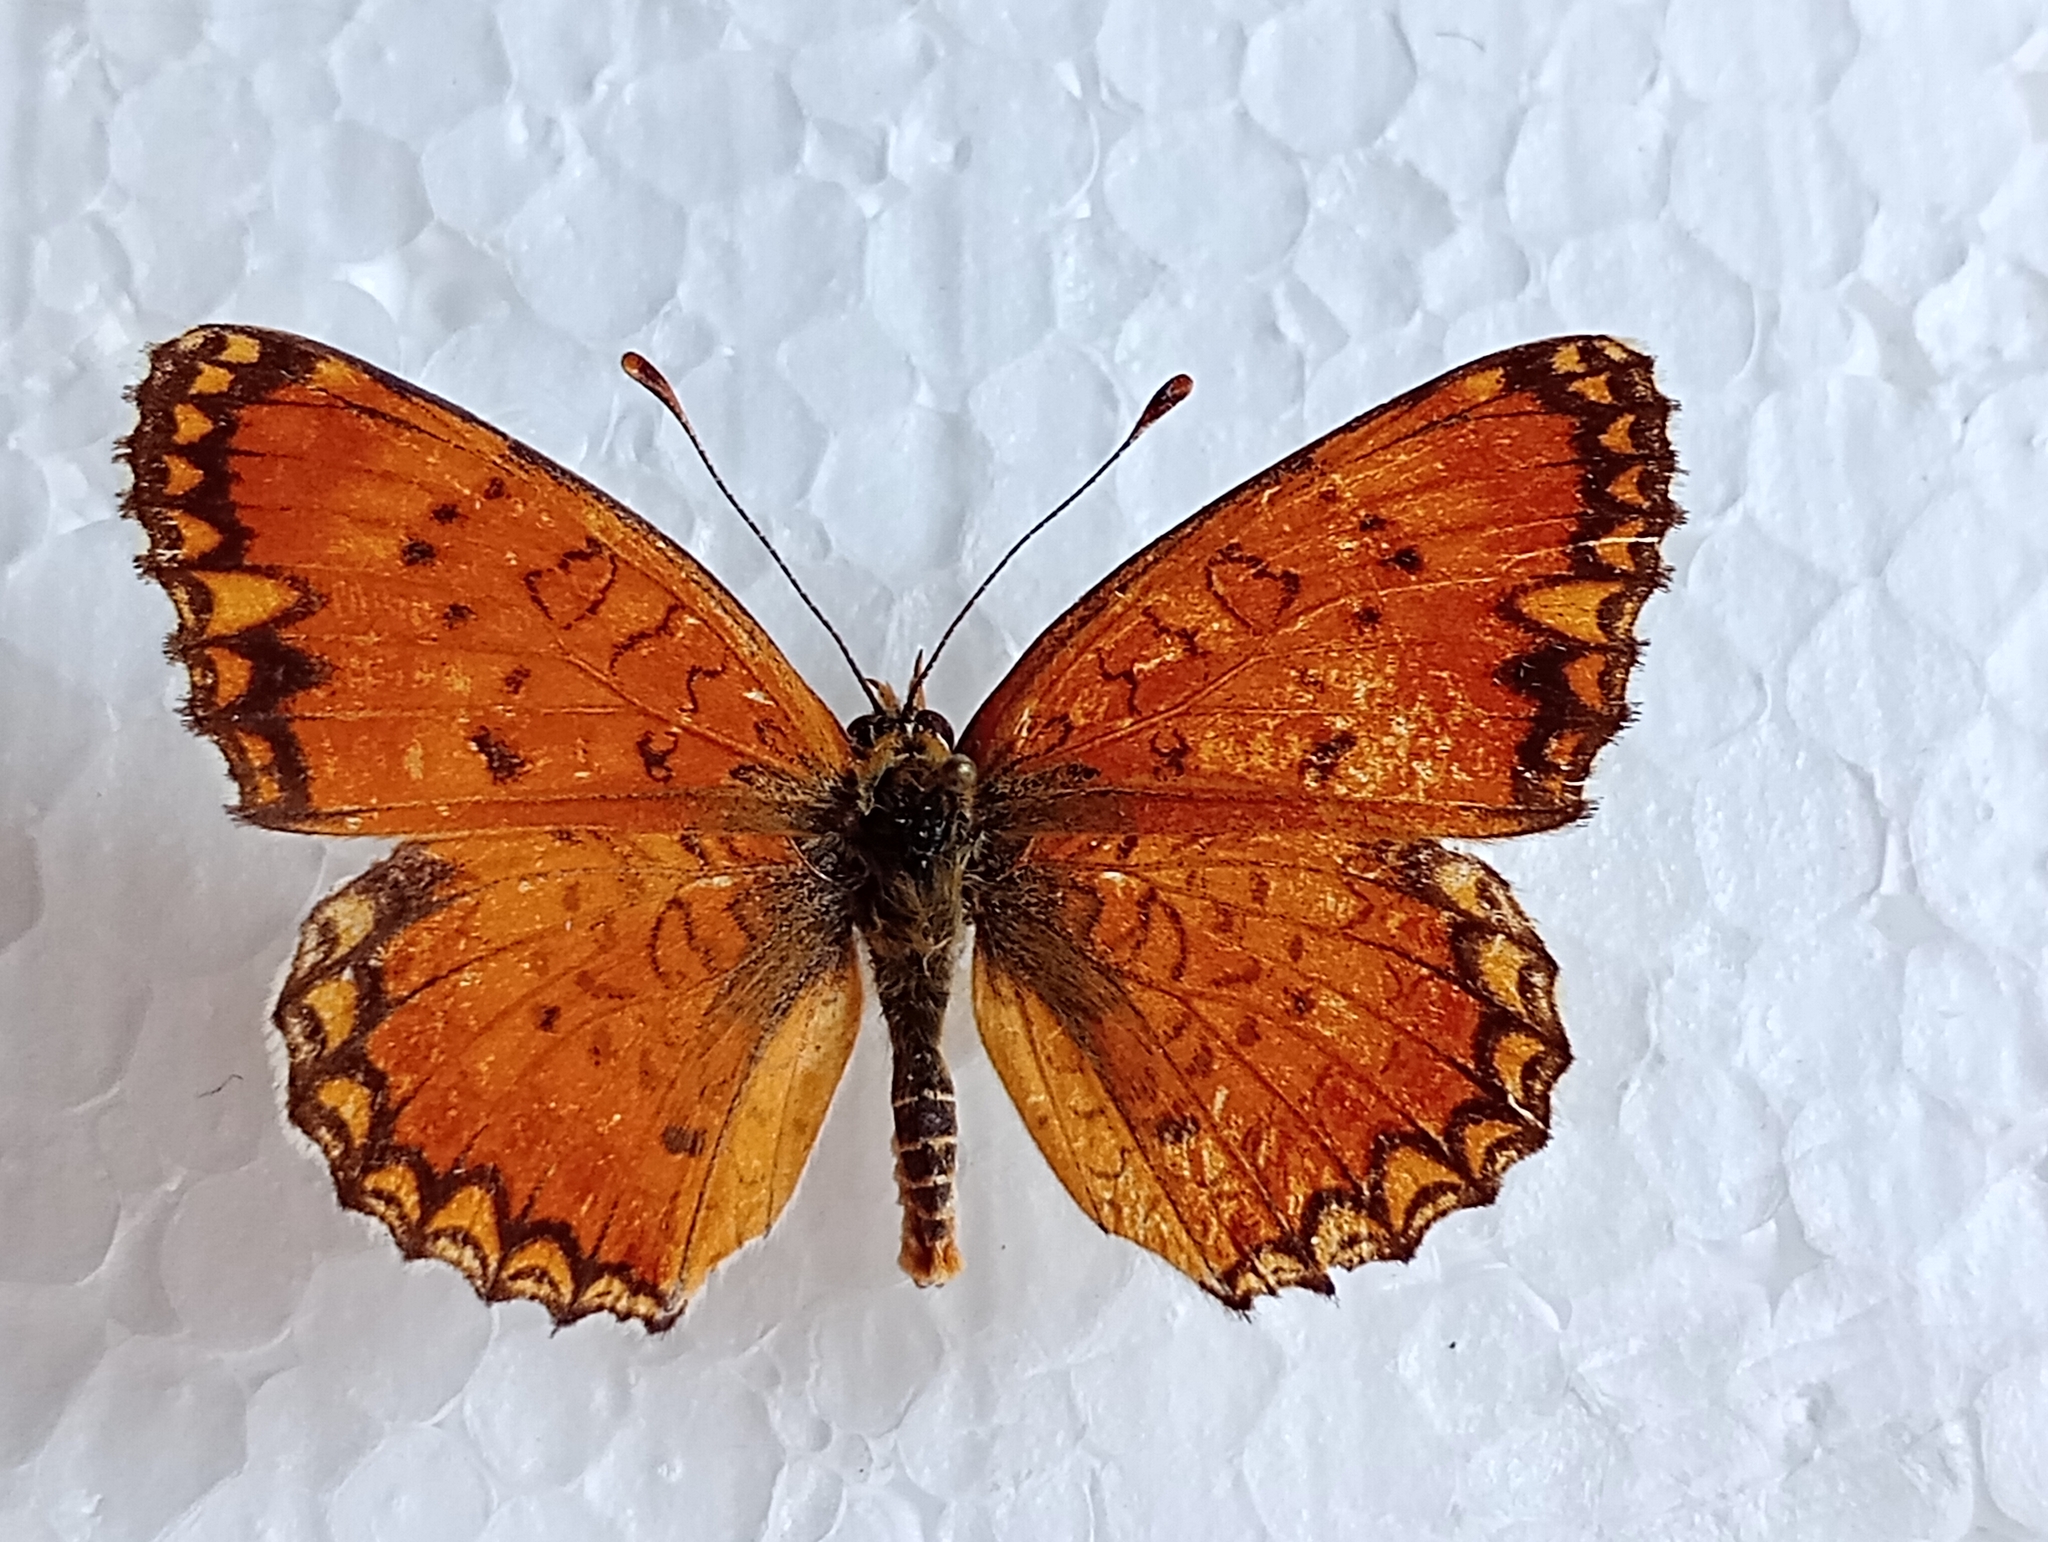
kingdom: Animalia
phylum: Arthropoda
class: Insecta
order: Lepidoptera
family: Nymphalidae
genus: Melitaea
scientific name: Melitaea sibina
